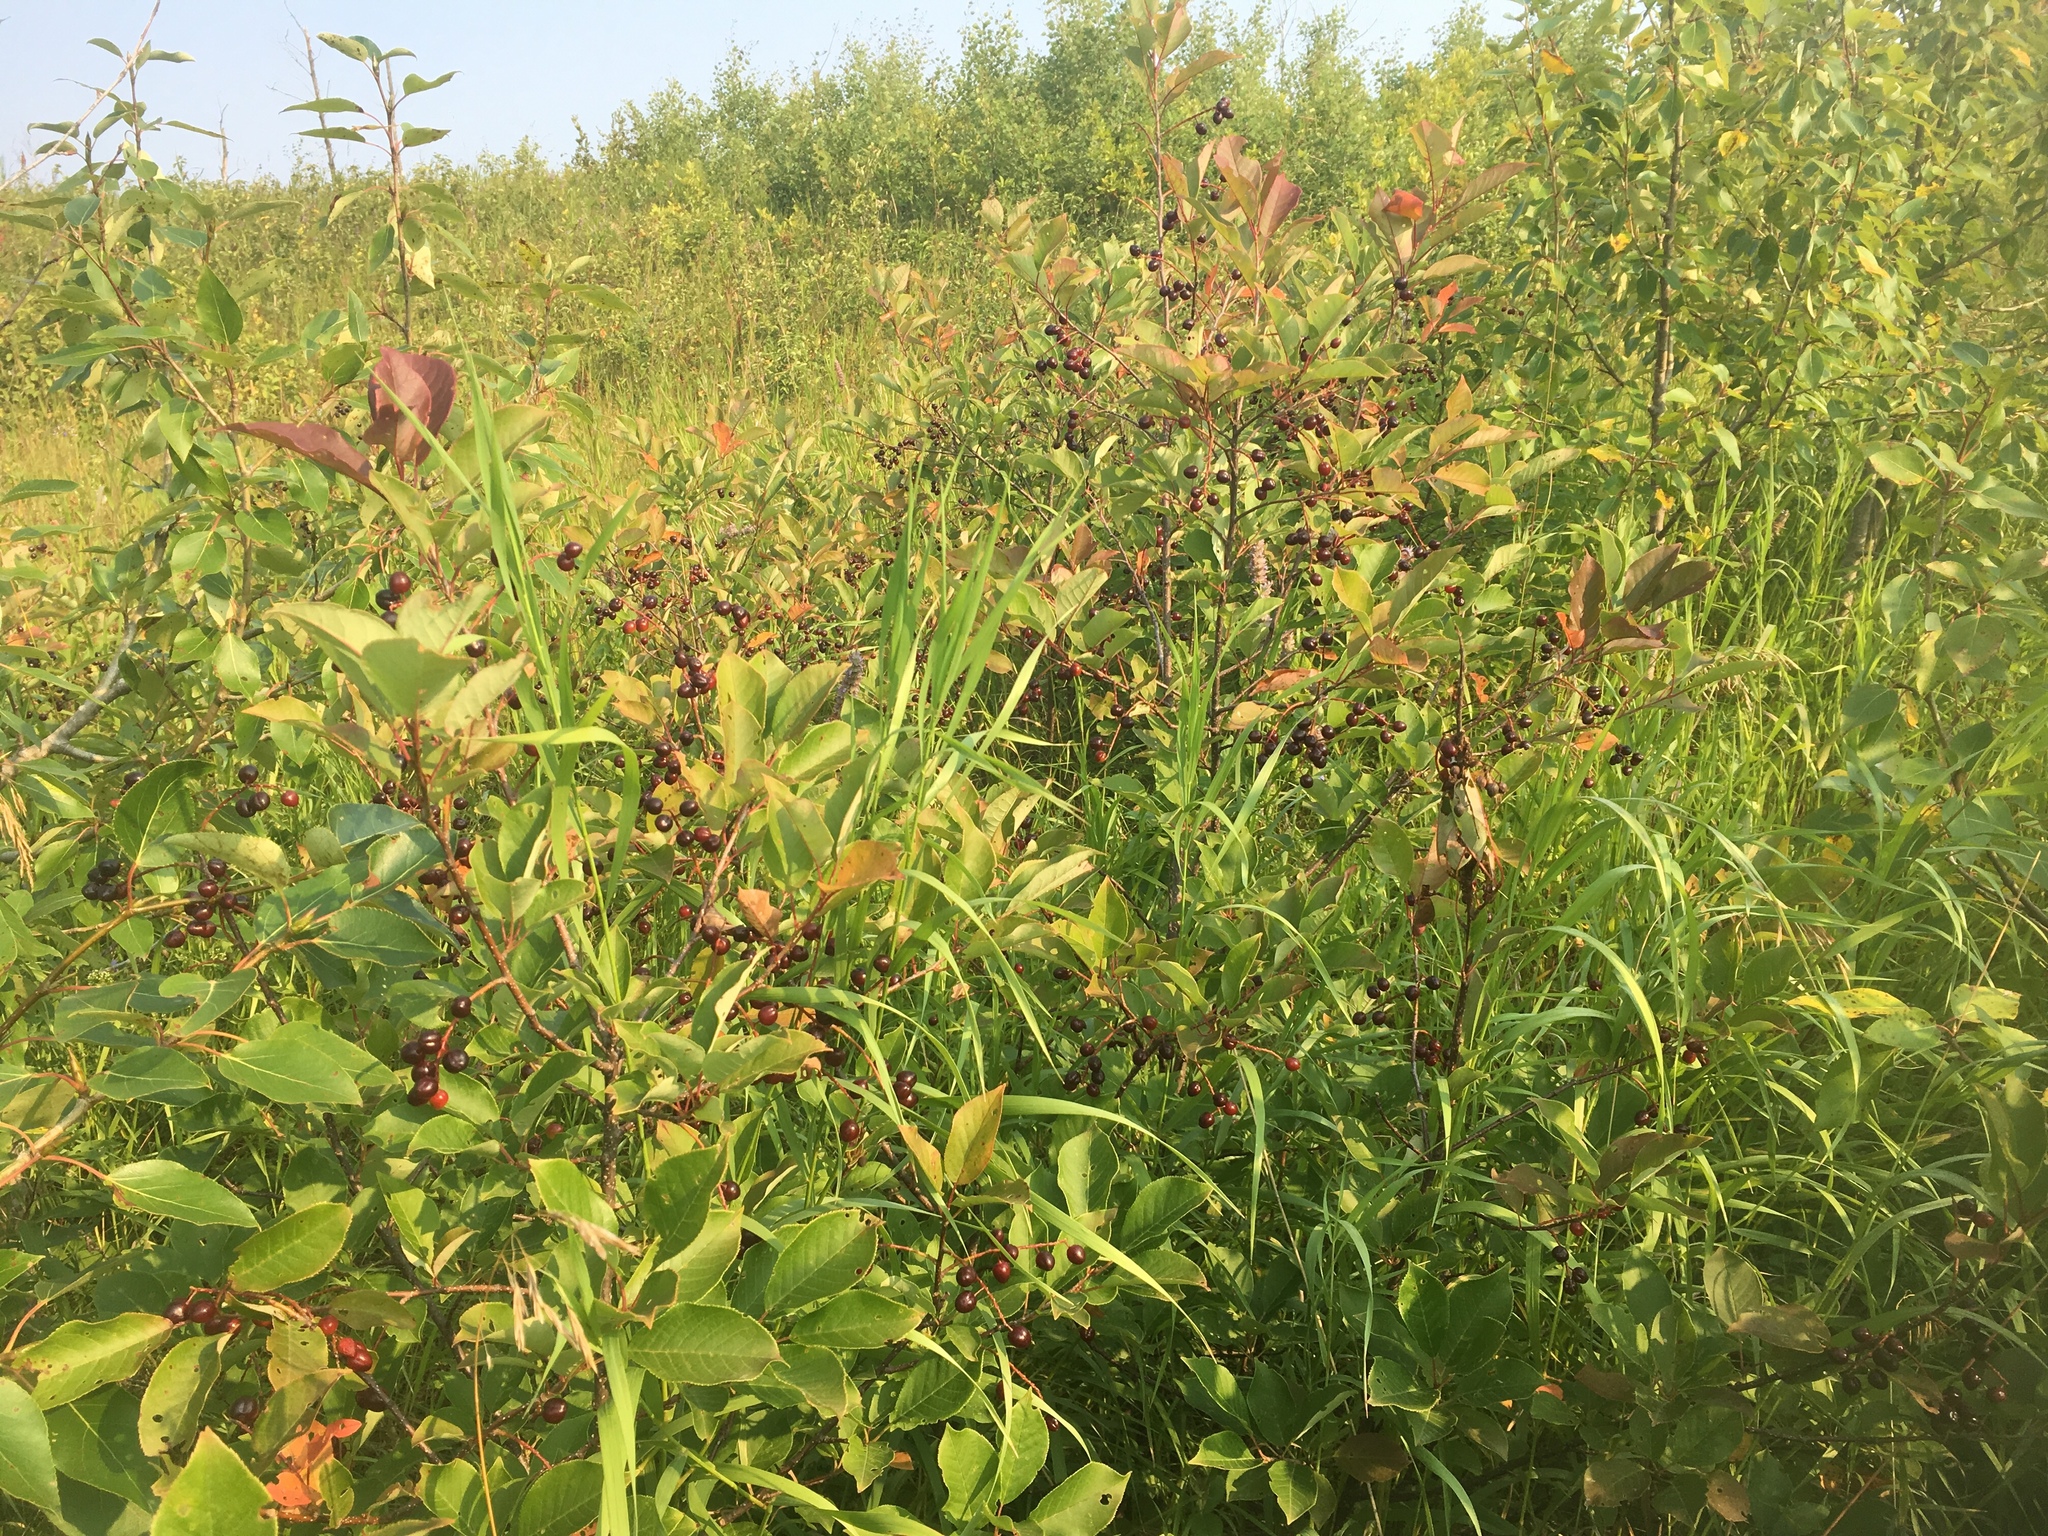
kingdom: Plantae
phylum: Tracheophyta
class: Magnoliopsida
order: Rosales
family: Rosaceae
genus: Prunus
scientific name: Prunus virginiana
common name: Chokecherry
